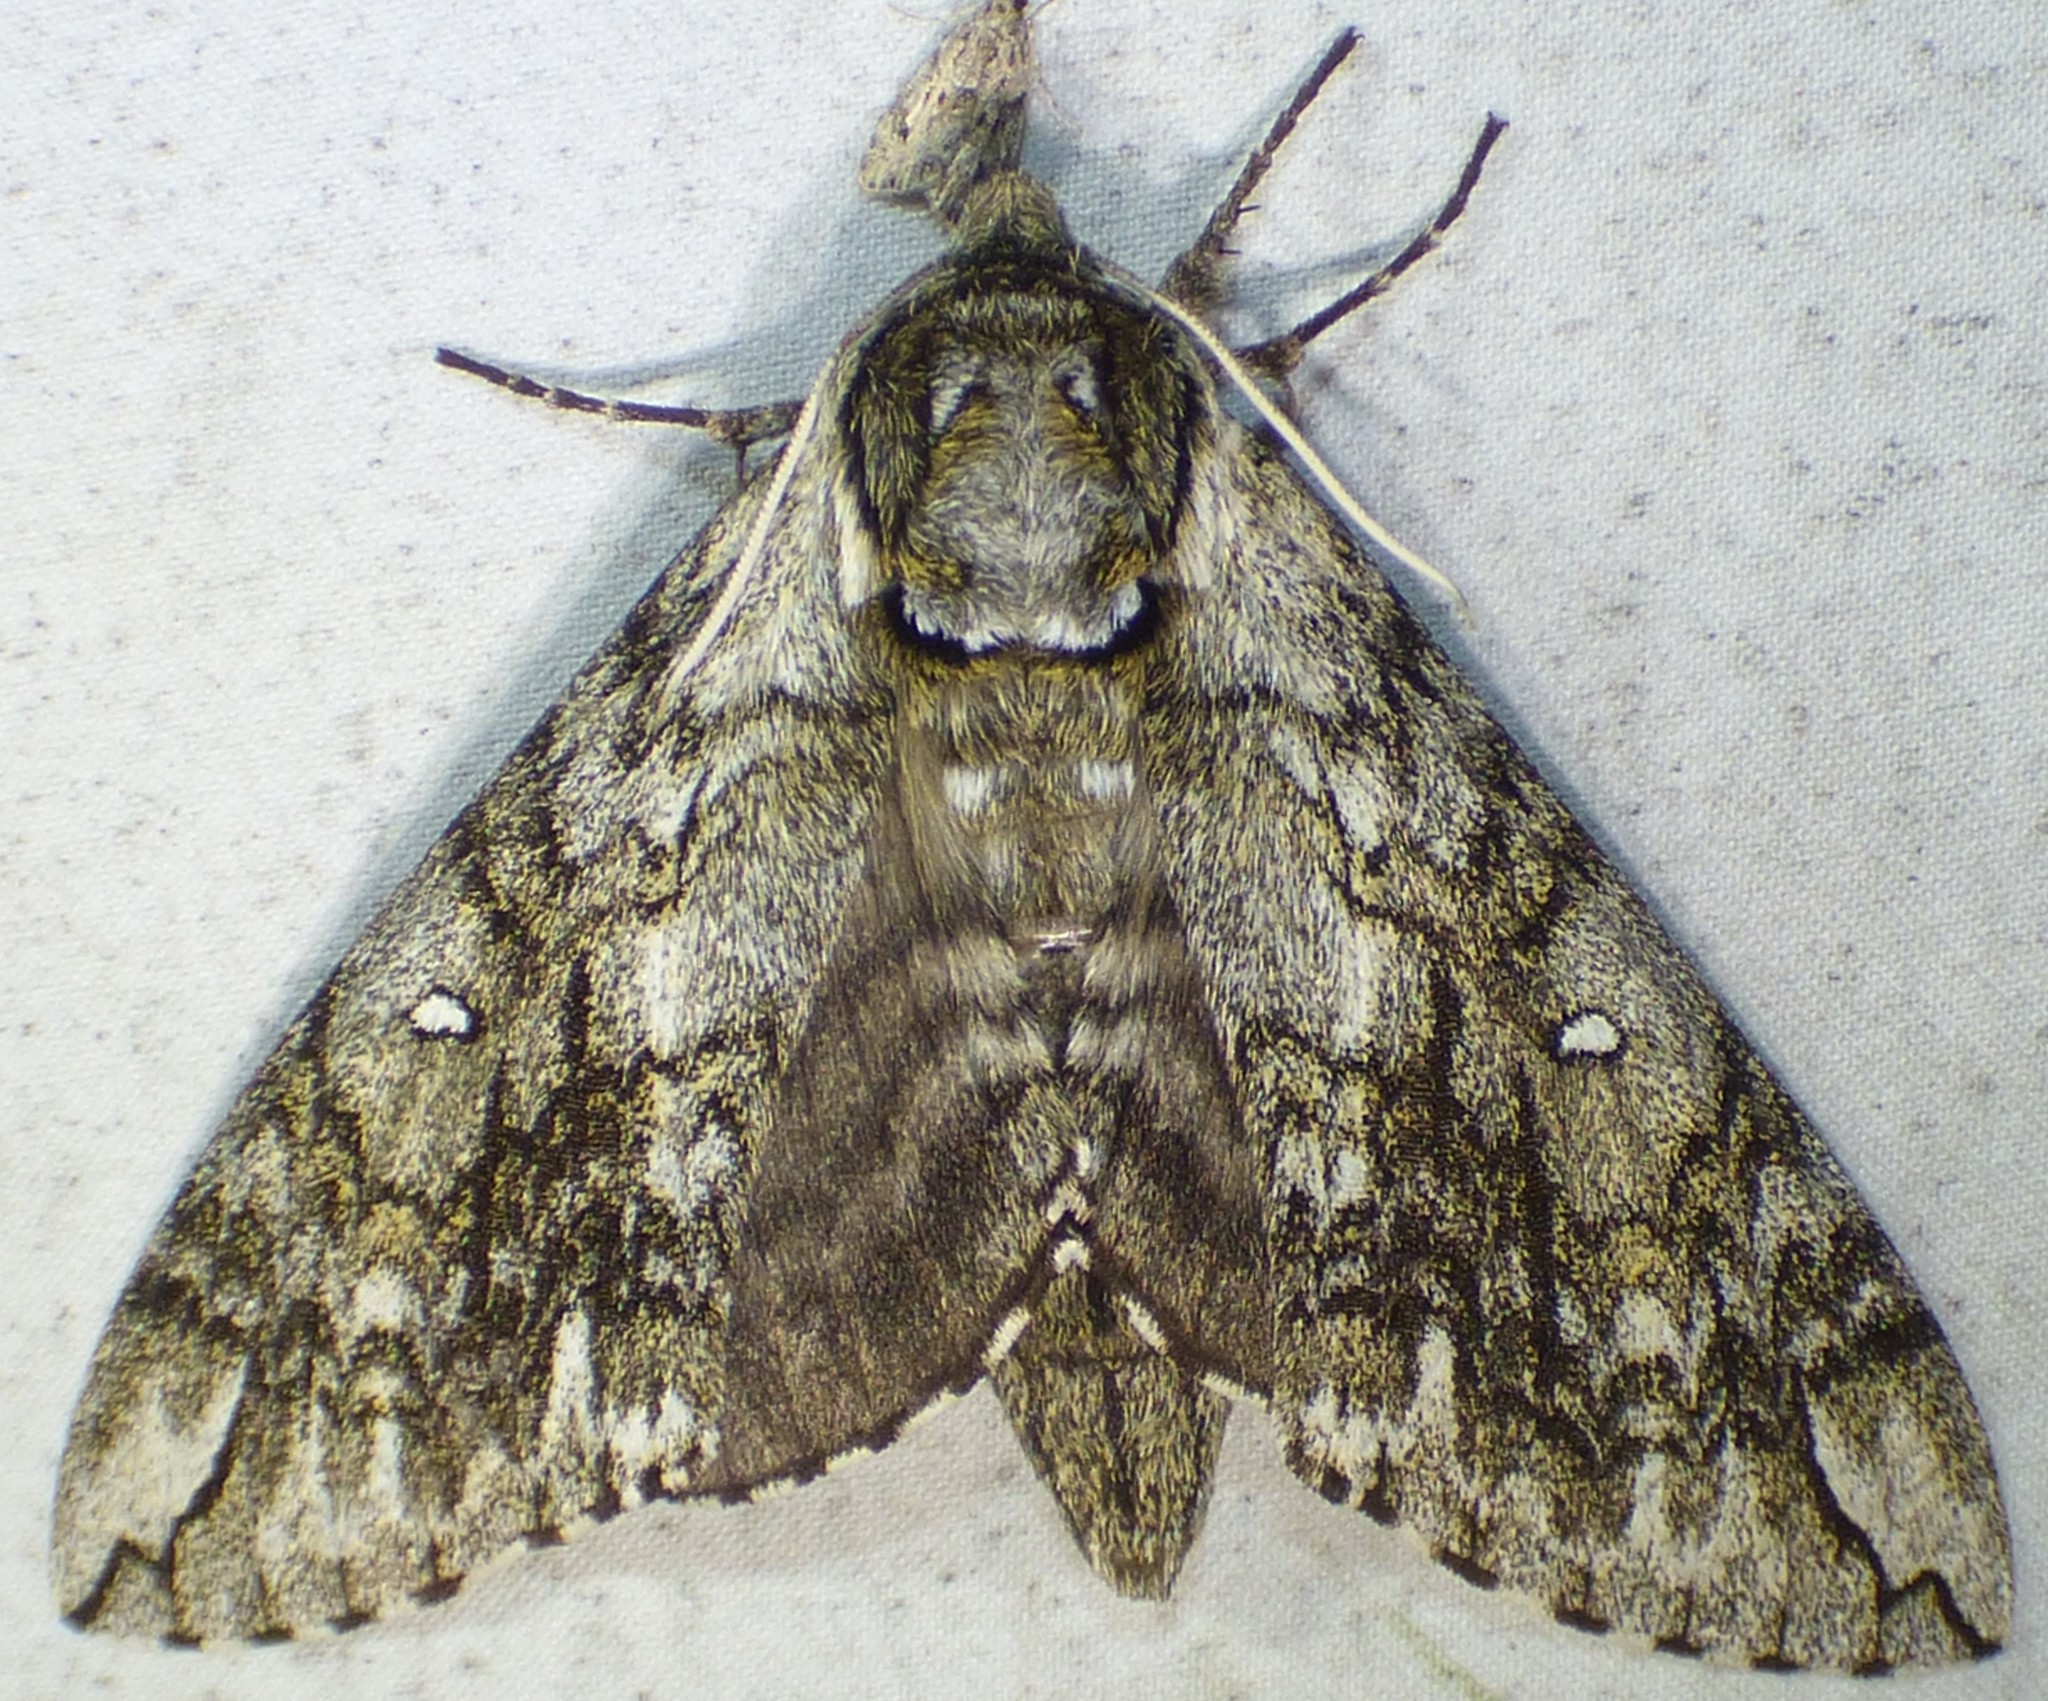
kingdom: Animalia
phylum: Arthropoda
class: Insecta
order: Lepidoptera
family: Sphingidae
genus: Ceratomia
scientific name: Ceratomia undulosa
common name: Waved sphinx
